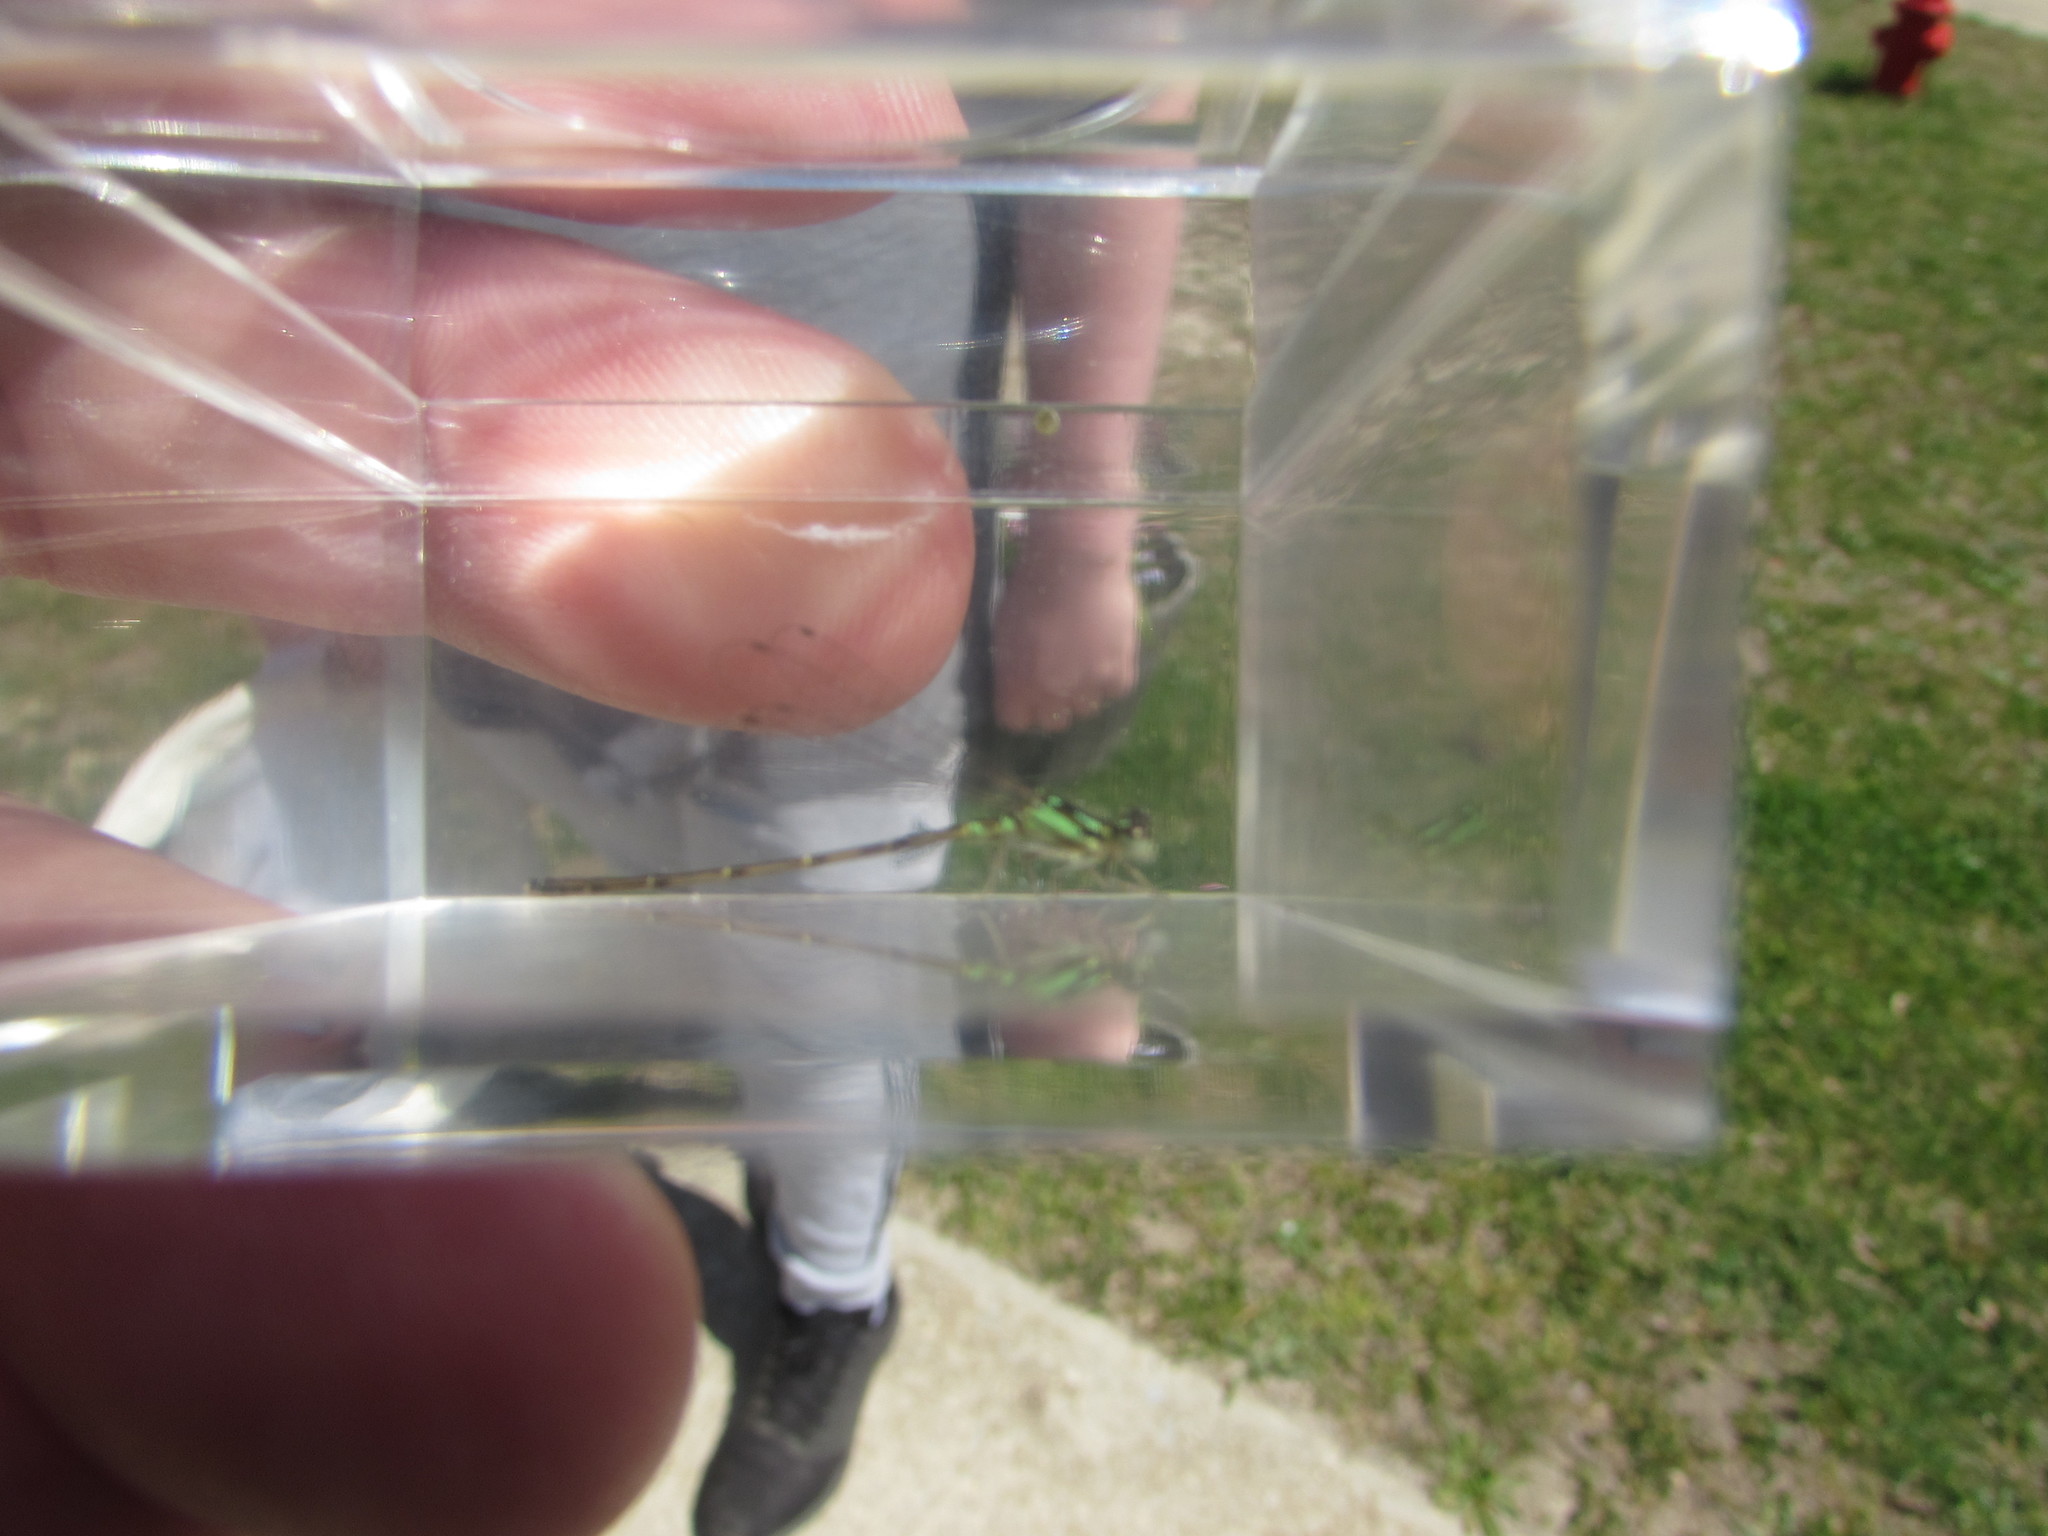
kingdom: Animalia
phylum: Arthropoda
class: Insecta
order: Odonata
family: Coenagrionidae
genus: Ischnura
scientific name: Ischnura posita
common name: Fragile forktail
